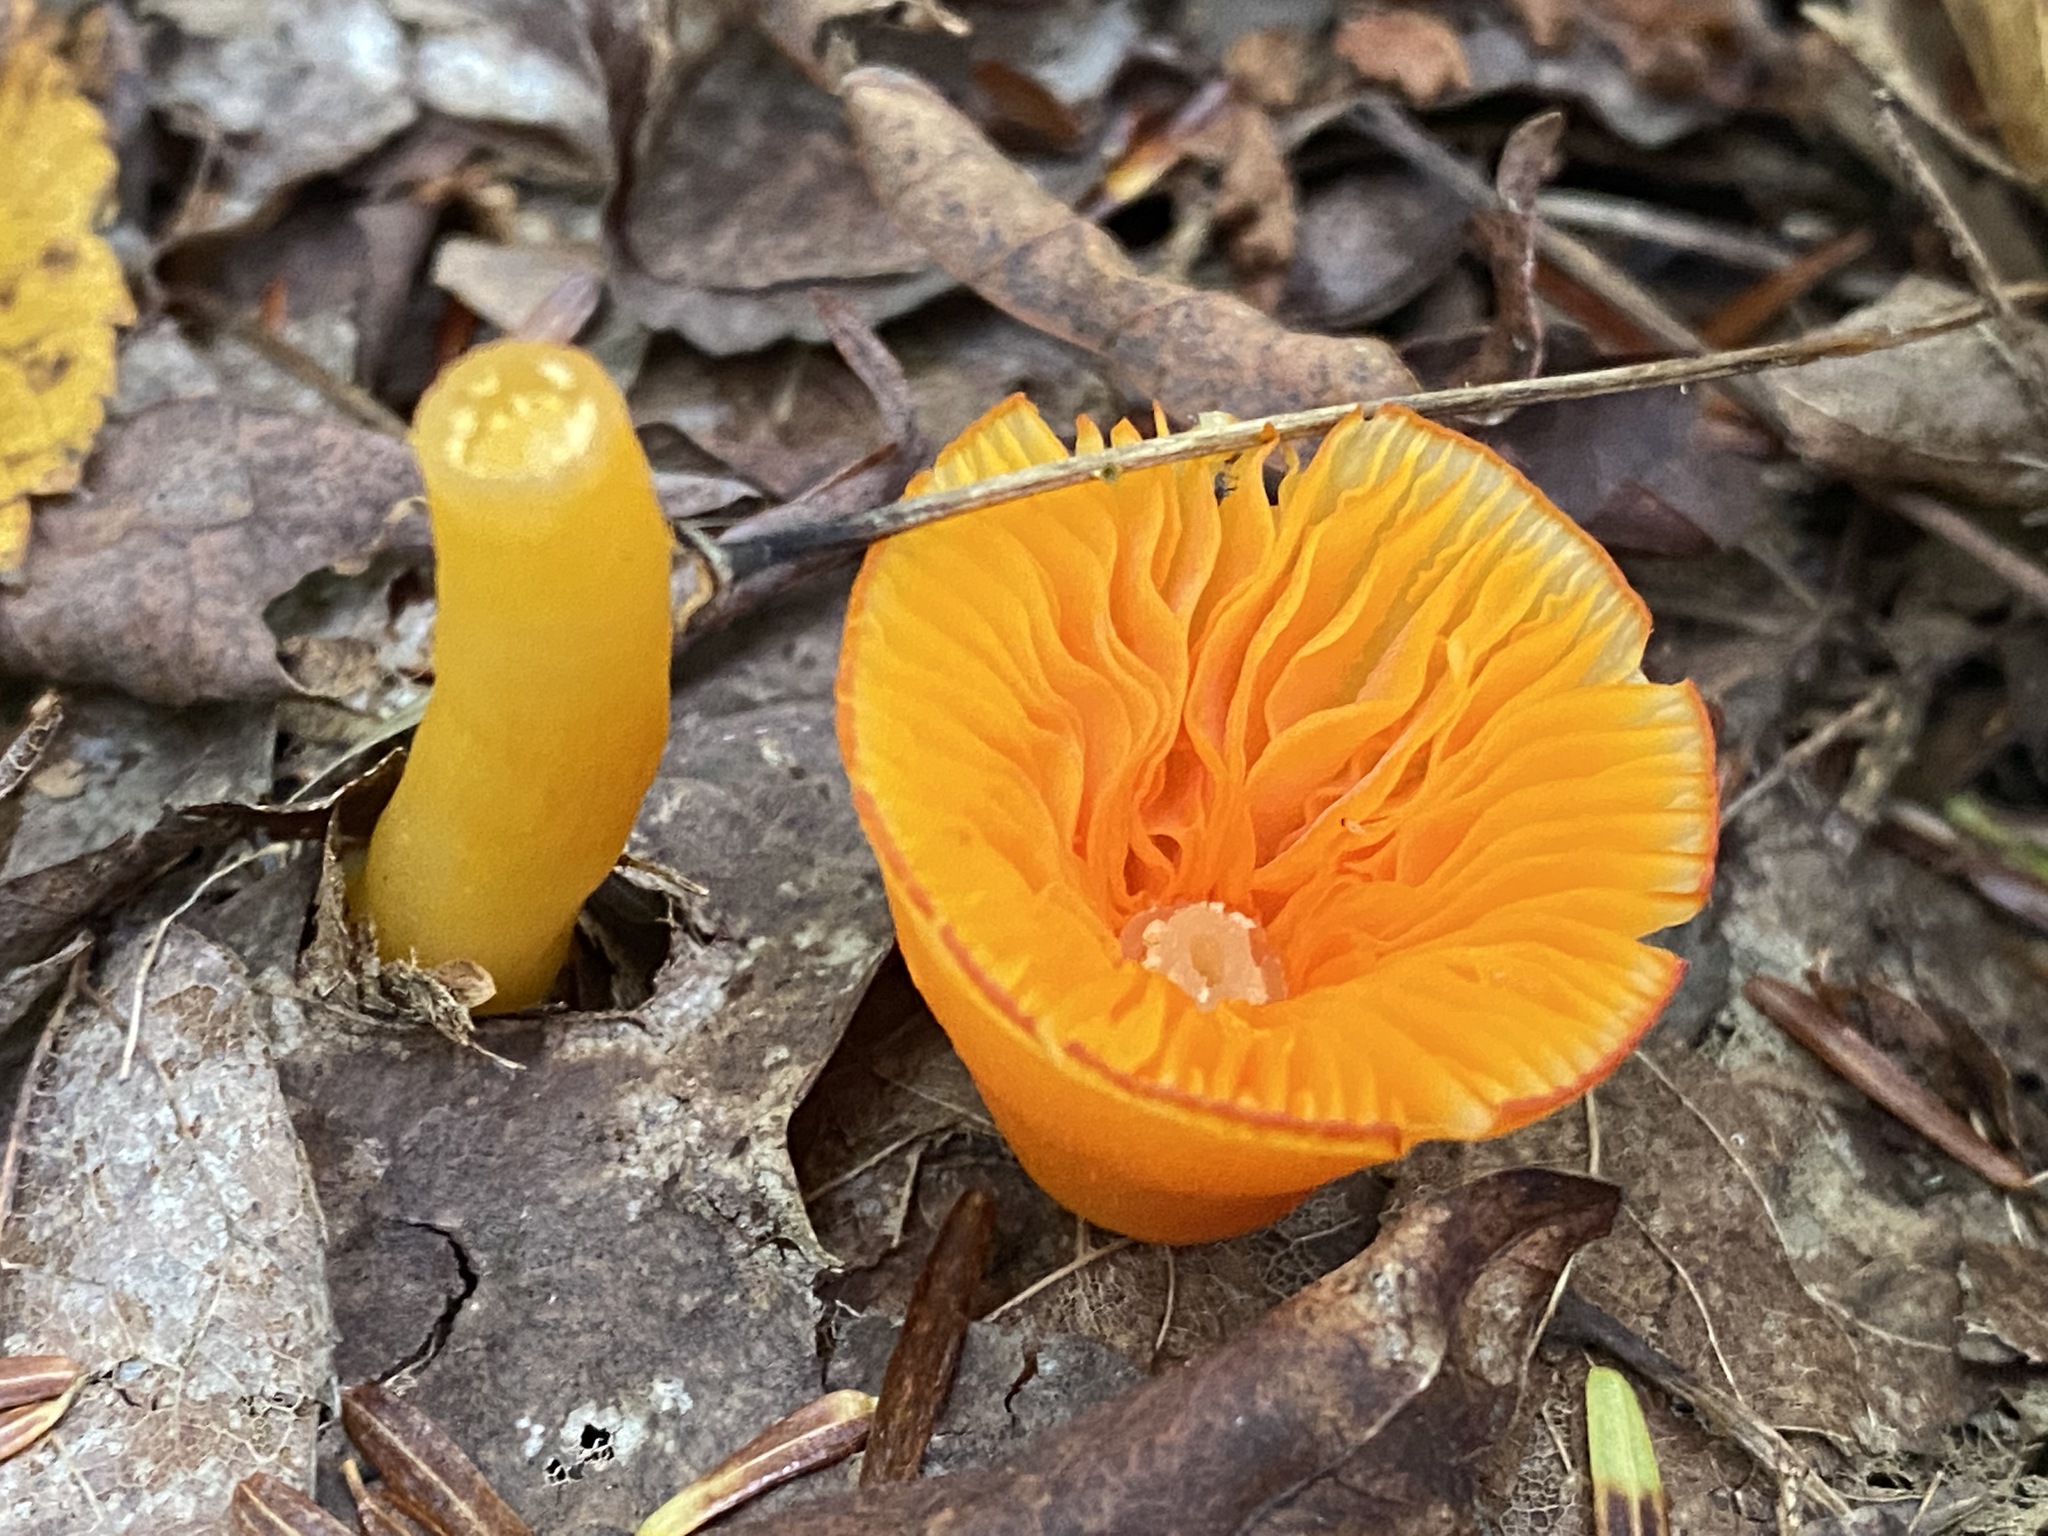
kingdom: Fungi
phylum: Basidiomycota
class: Agaricomycetes
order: Agaricales
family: Hygrophoraceae
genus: Humidicutis
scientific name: Humidicutis marginata
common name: Orange gilled waxcap
